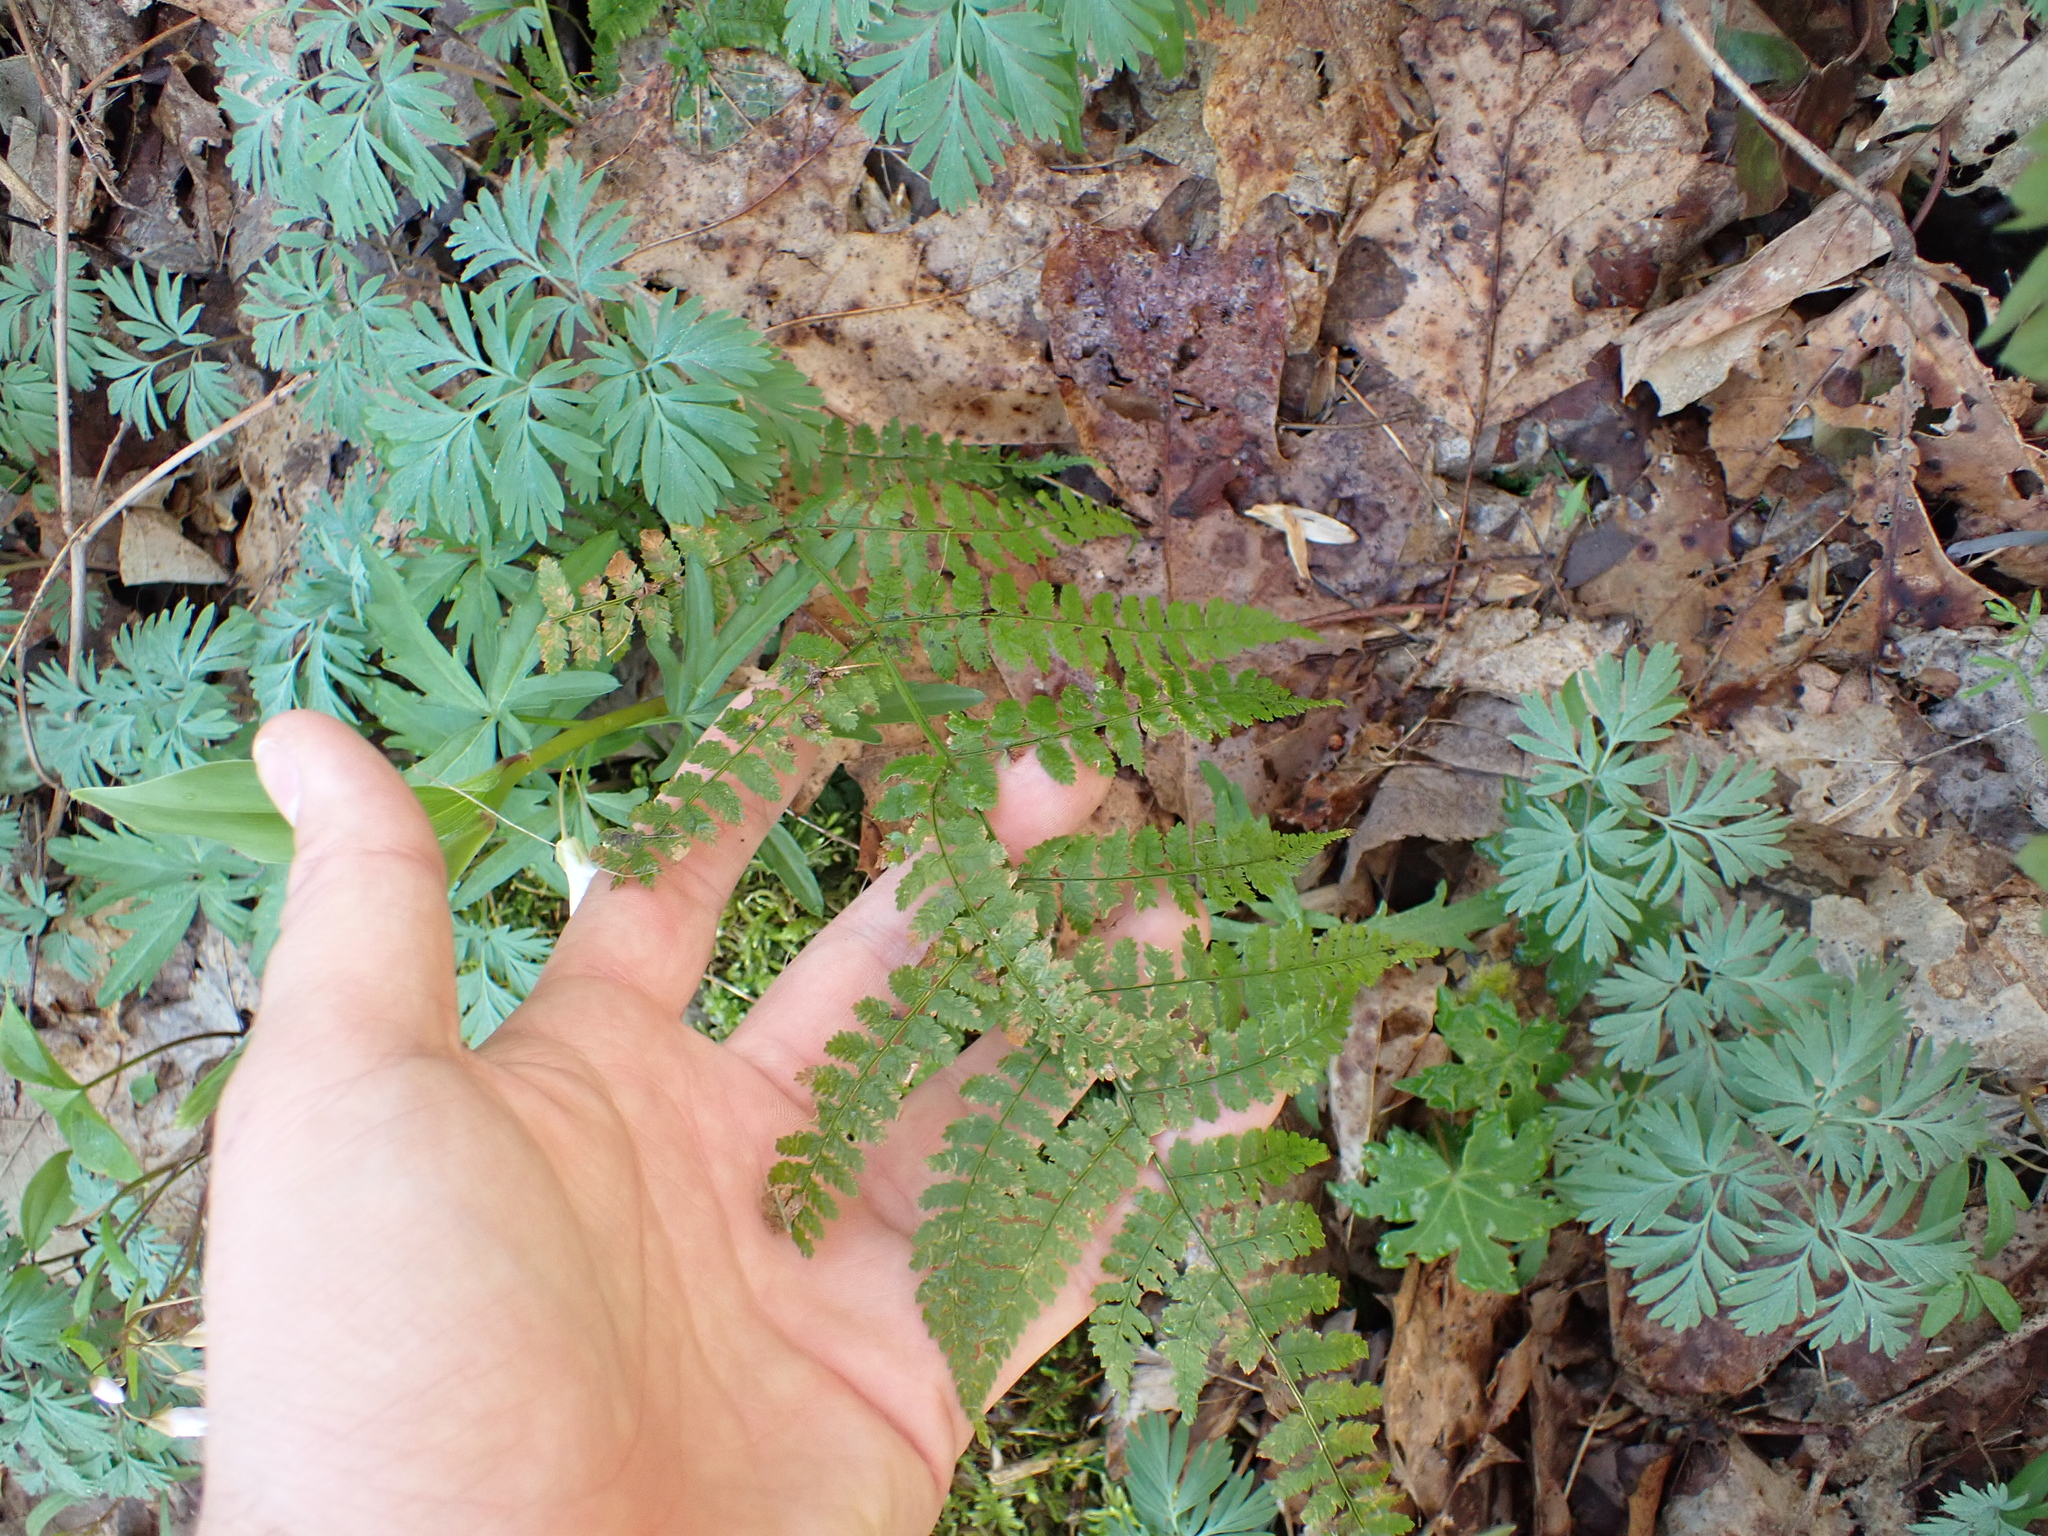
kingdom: Plantae
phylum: Tracheophyta
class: Polypodiopsida
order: Polypodiales
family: Dryopteridaceae
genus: Dryopteris
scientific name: Dryopteris intermedia
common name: Evergreen wood fern
